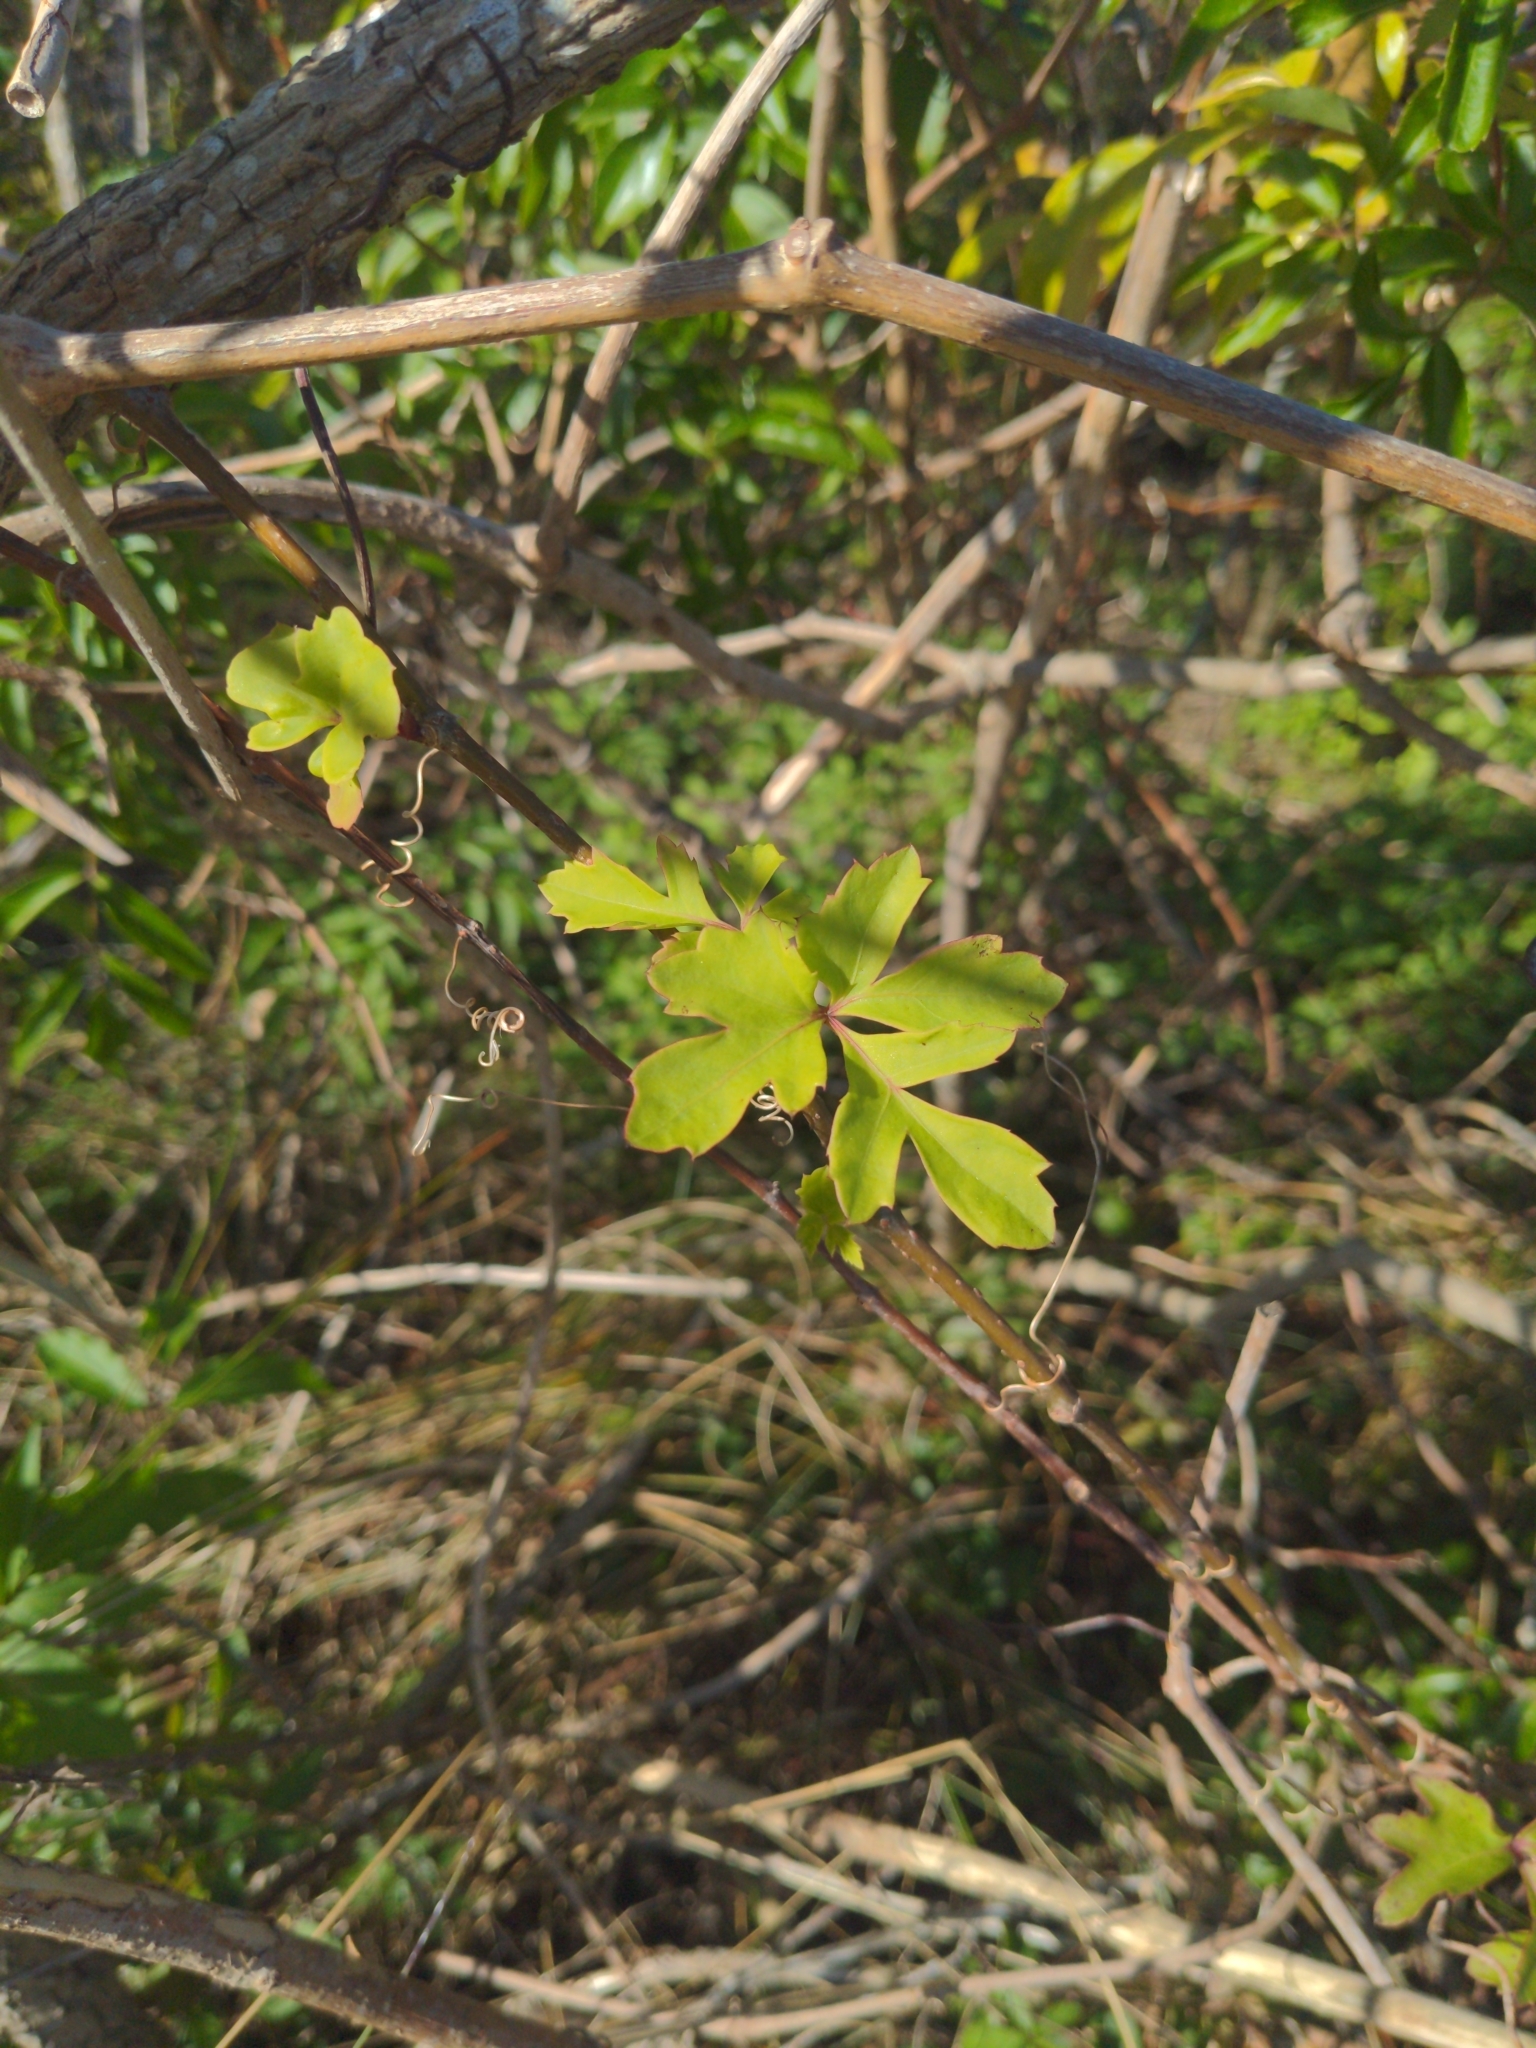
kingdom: Plantae
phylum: Tracheophyta
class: Magnoliopsida
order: Vitales
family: Vitaceae
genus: Cissus
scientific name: Cissus trifoliata
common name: Vine-sorrel
